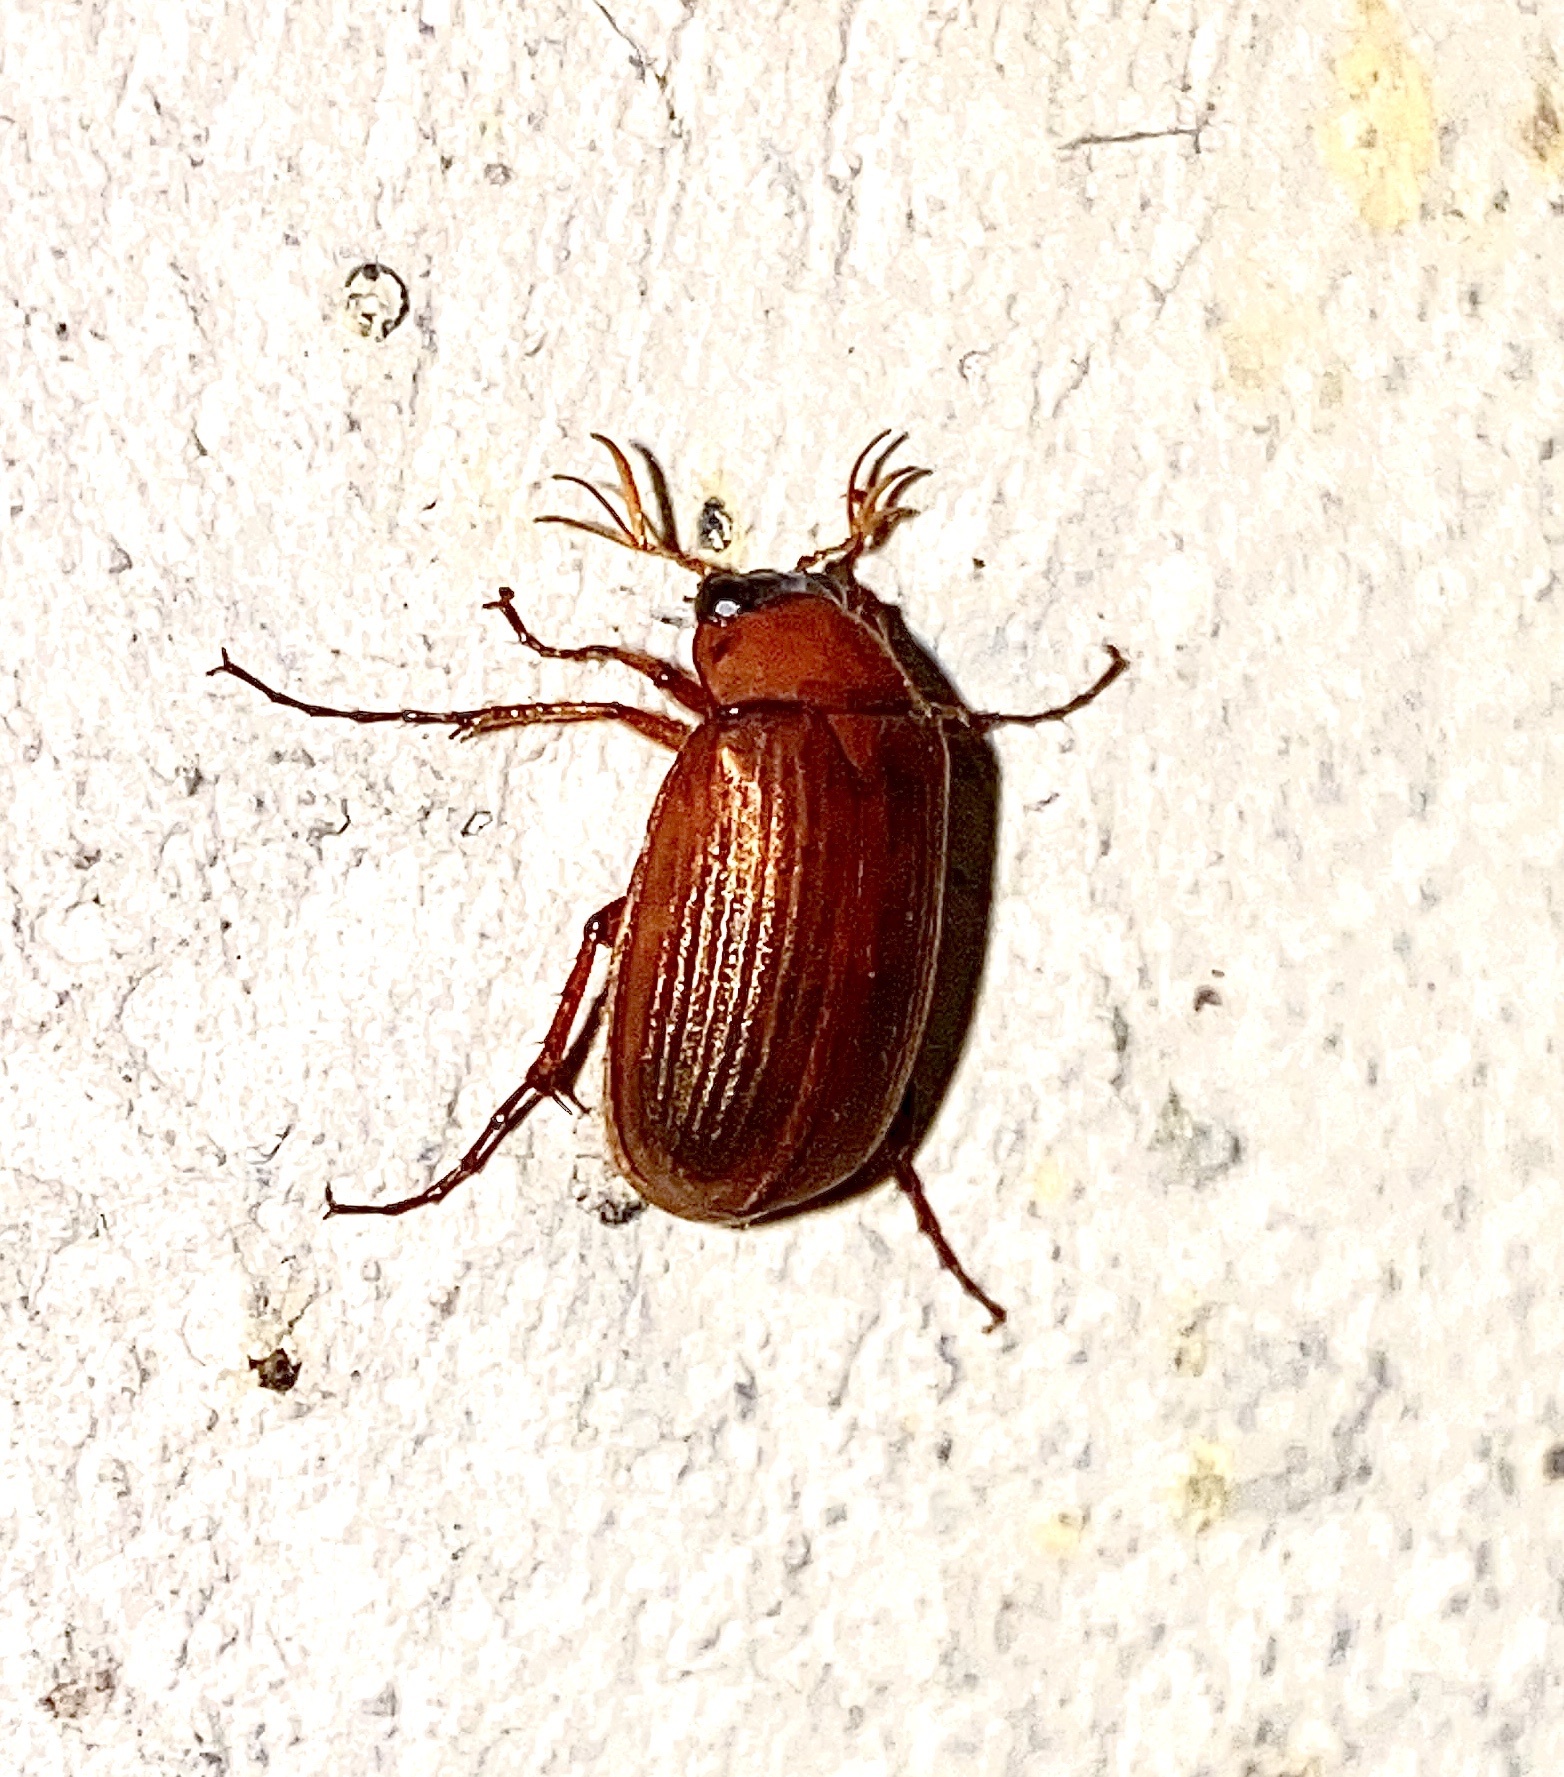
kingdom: Animalia
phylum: Arthropoda
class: Insecta
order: Coleoptera
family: Scarabaeidae
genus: Serica
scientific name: Serica brunnea
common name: Brown chafer
